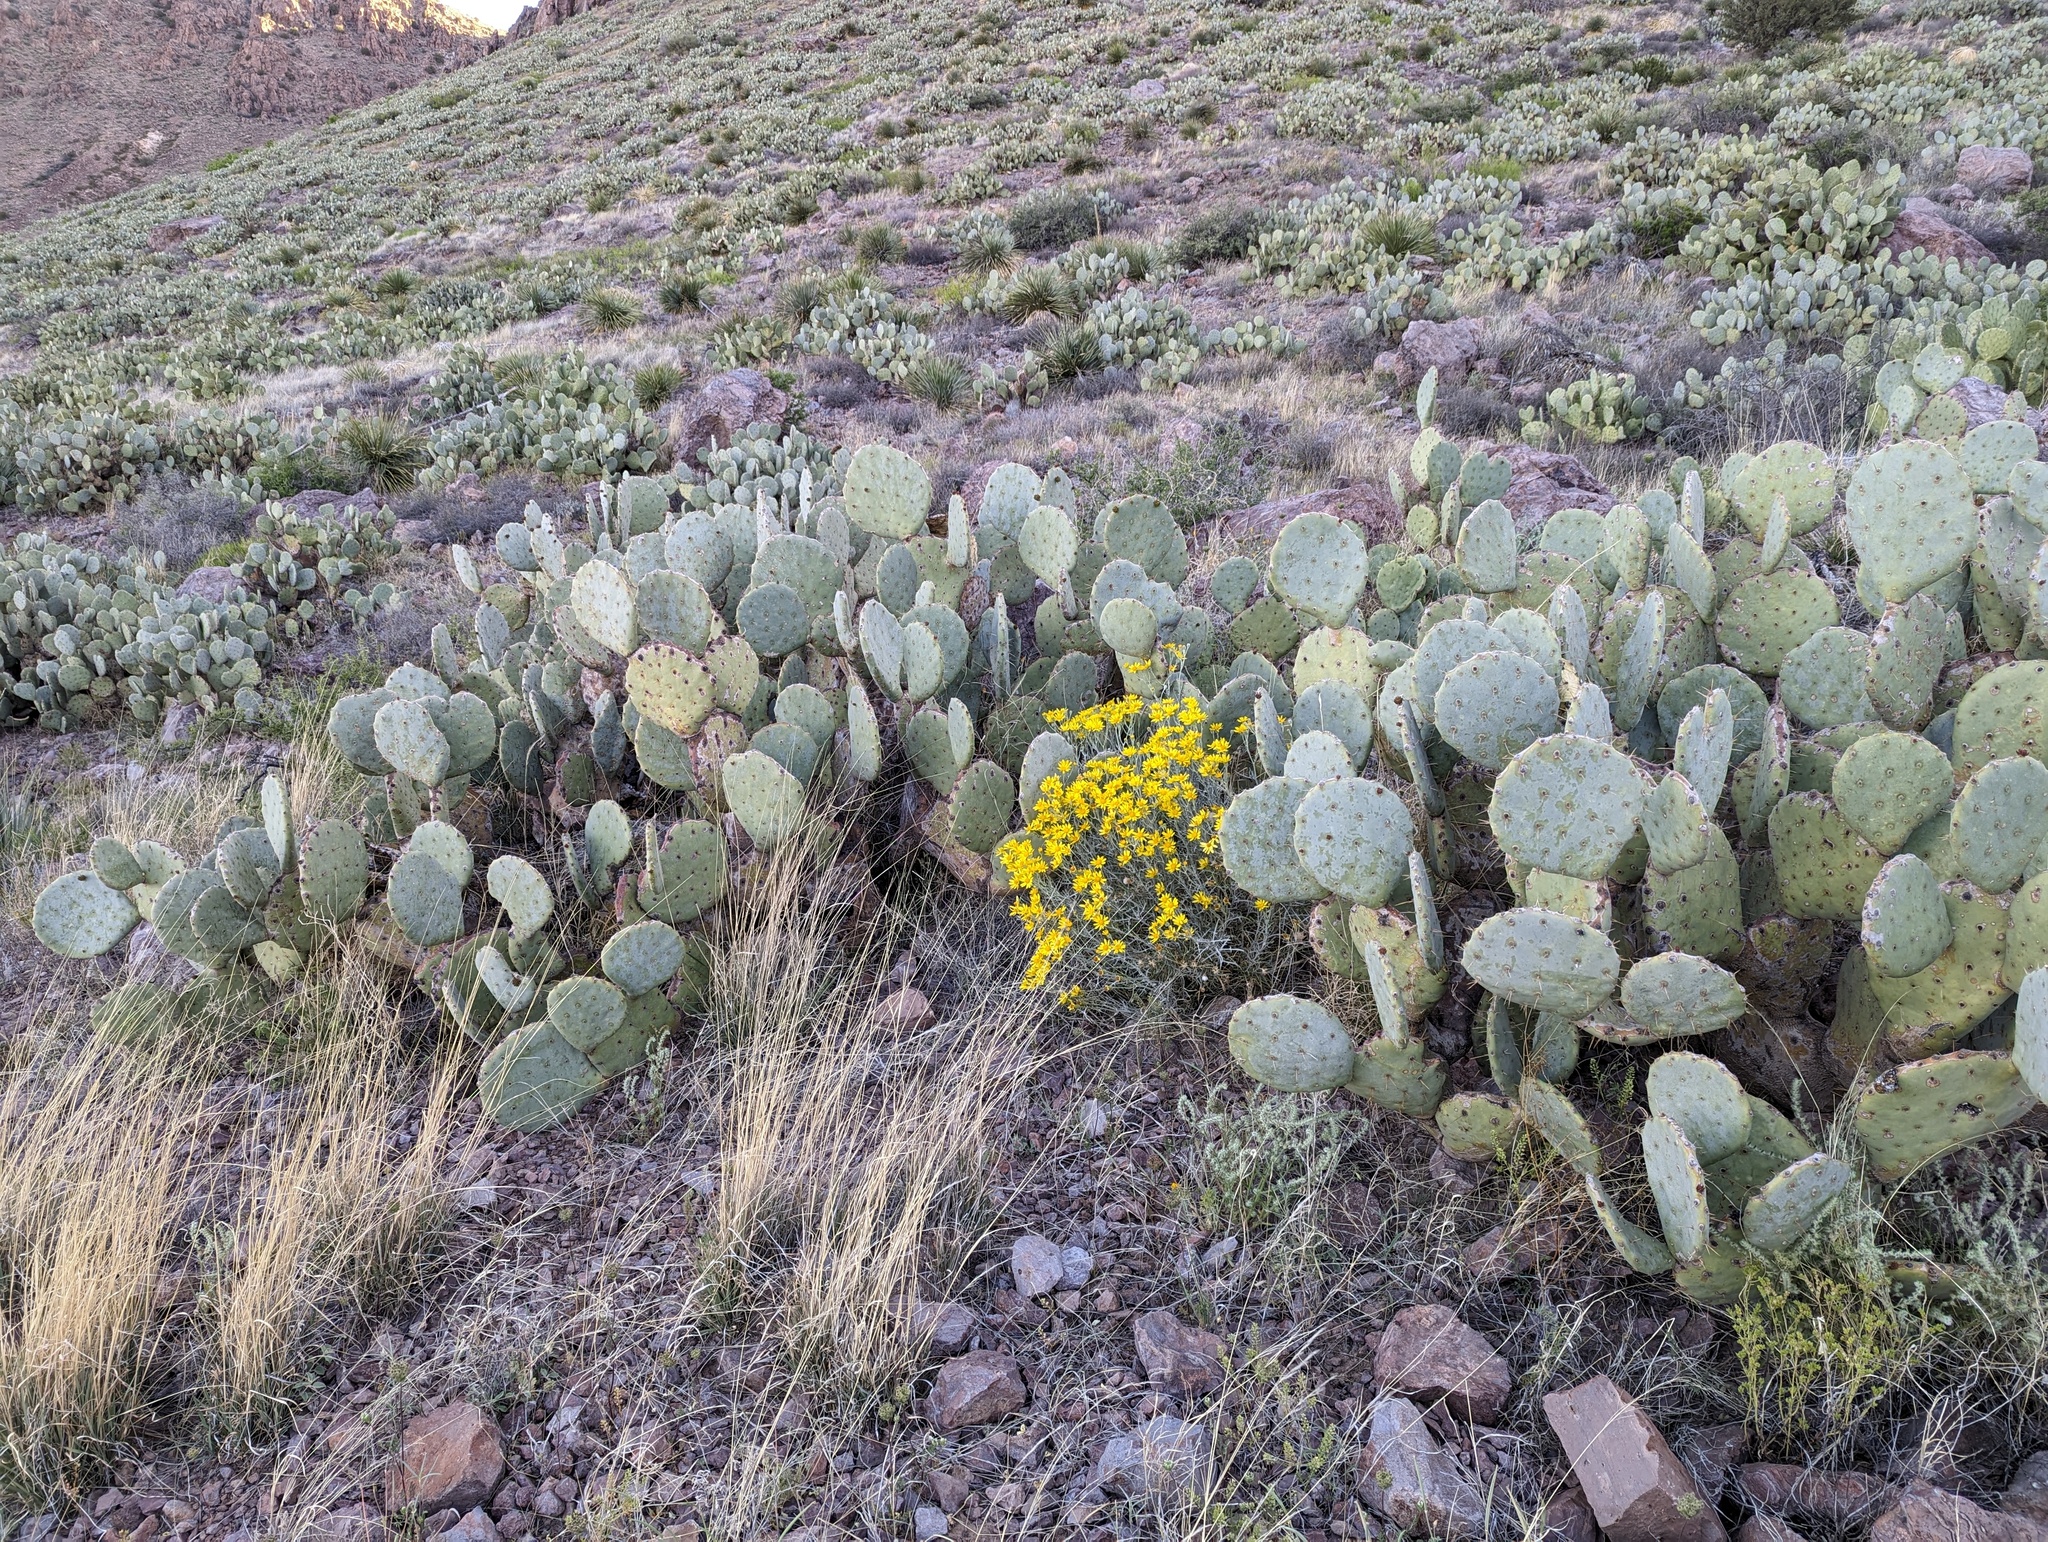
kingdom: Plantae
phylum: Tracheophyta
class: Magnoliopsida
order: Asterales
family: Asteraceae
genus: Senecio
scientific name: Senecio flaccidus
